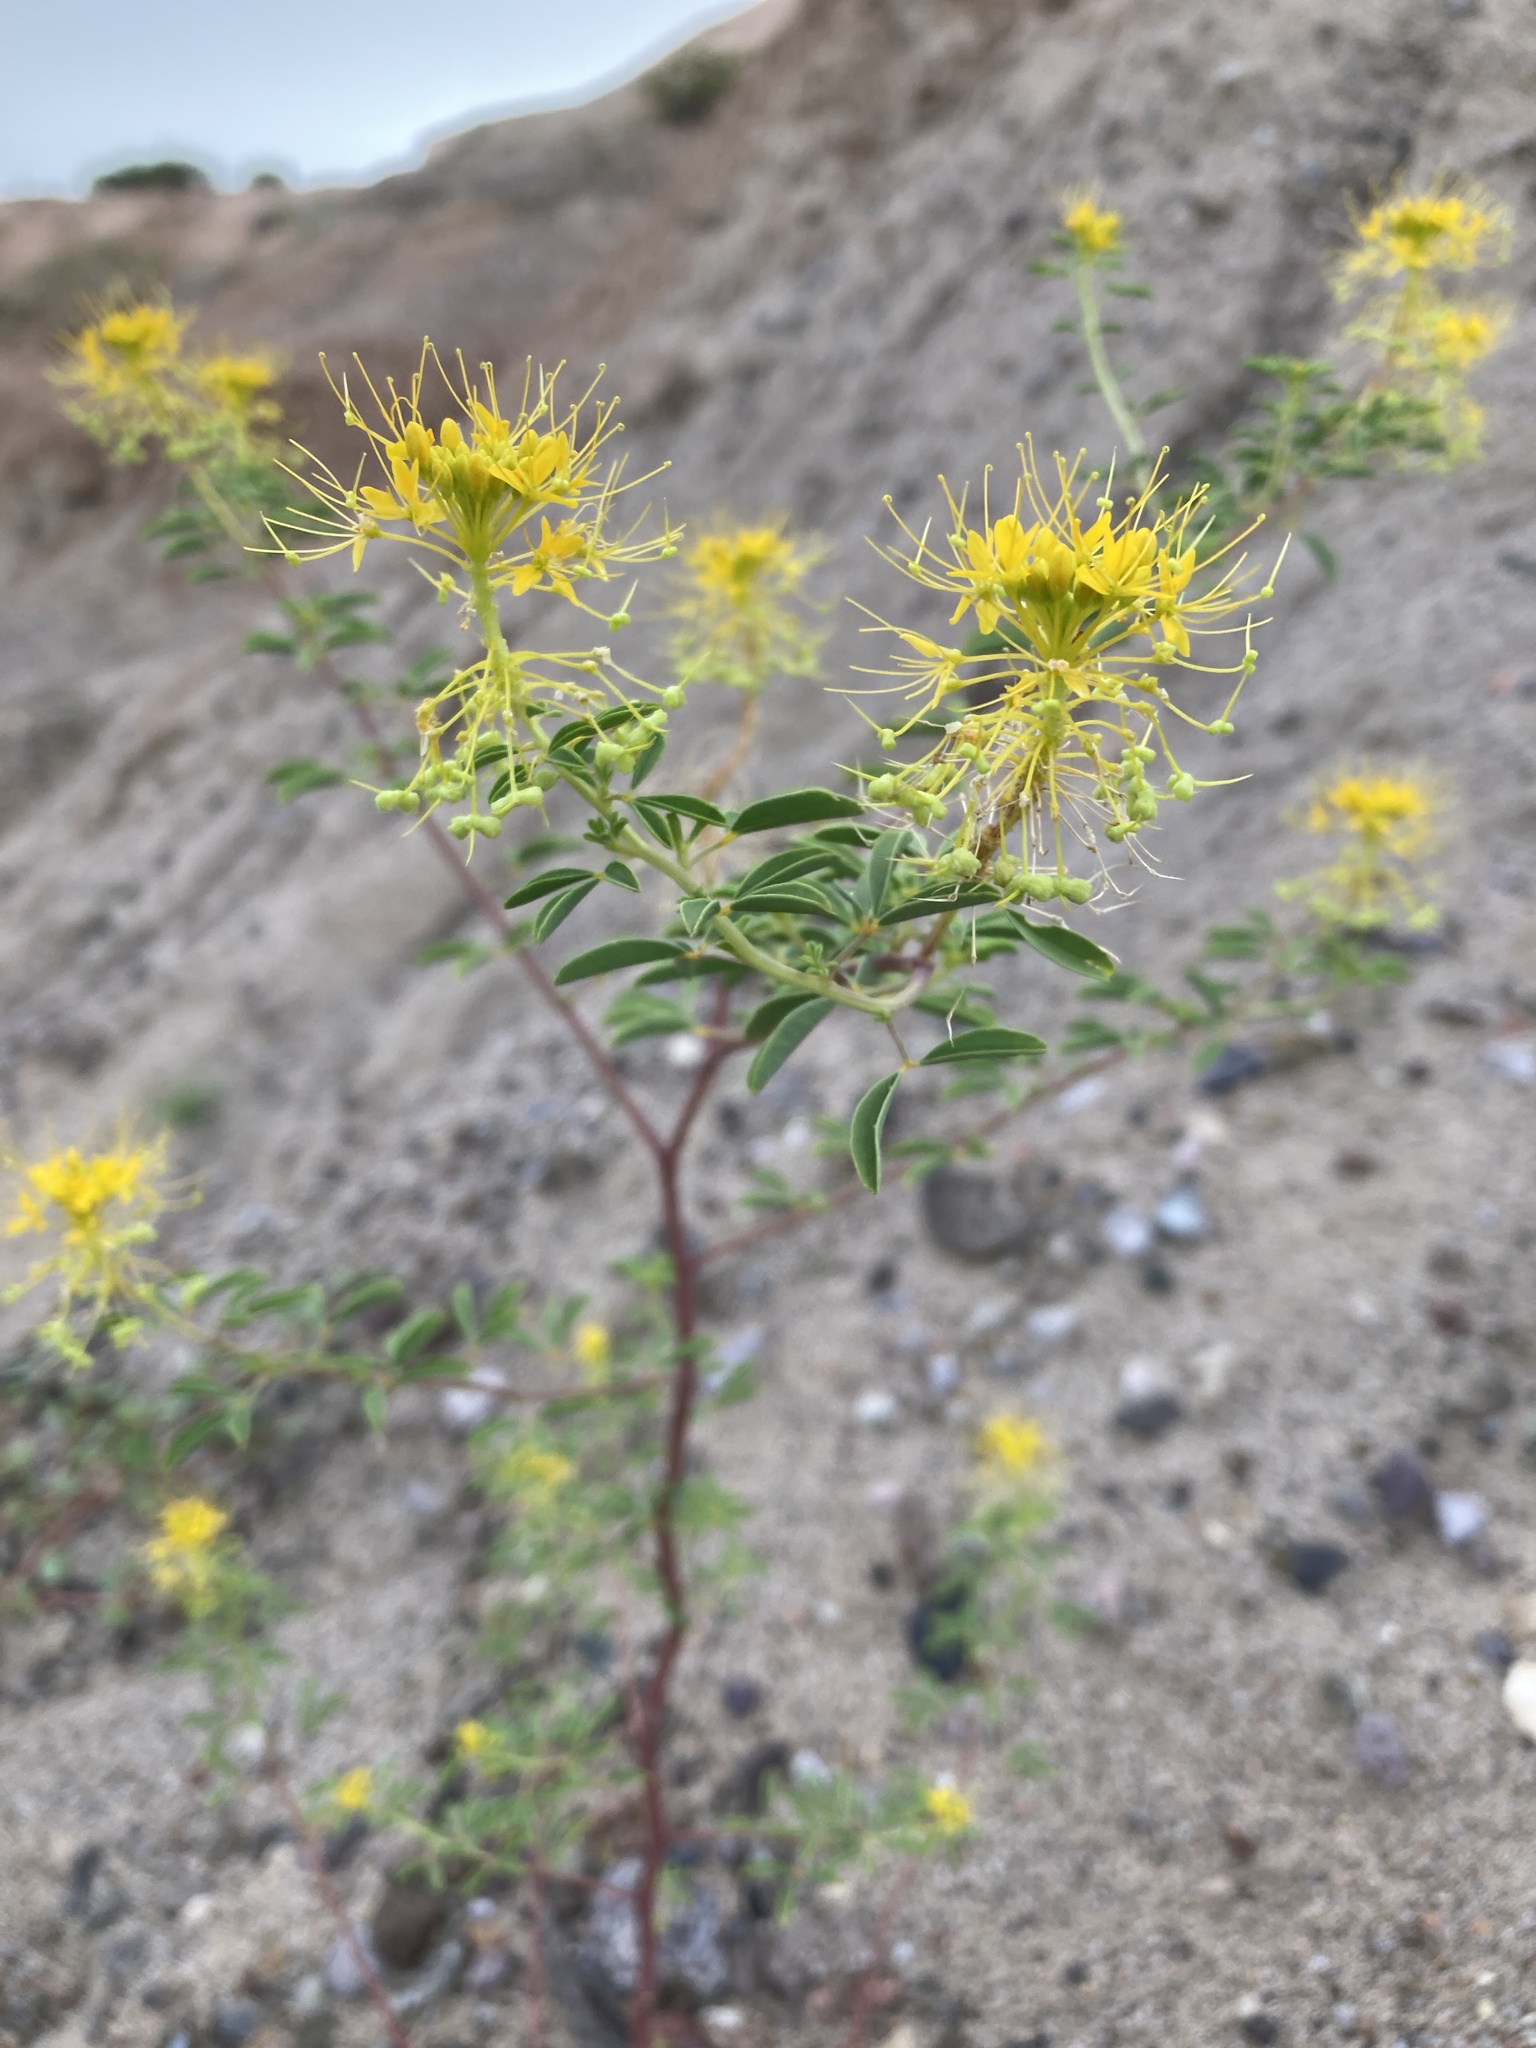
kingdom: Plantae
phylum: Tracheophyta
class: Magnoliopsida
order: Brassicales
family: Cleomaceae
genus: Cleomella
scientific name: Cleomella refracta
